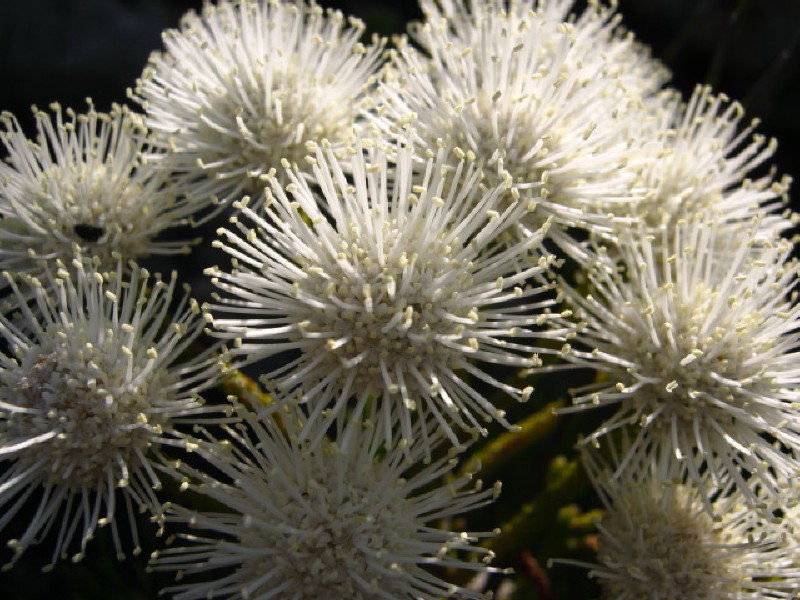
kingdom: Plantae
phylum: Tracheophyta
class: Magnoliopsida
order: Bruniales
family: Bruniaceae
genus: Brunia
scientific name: Brunia noduliflora
